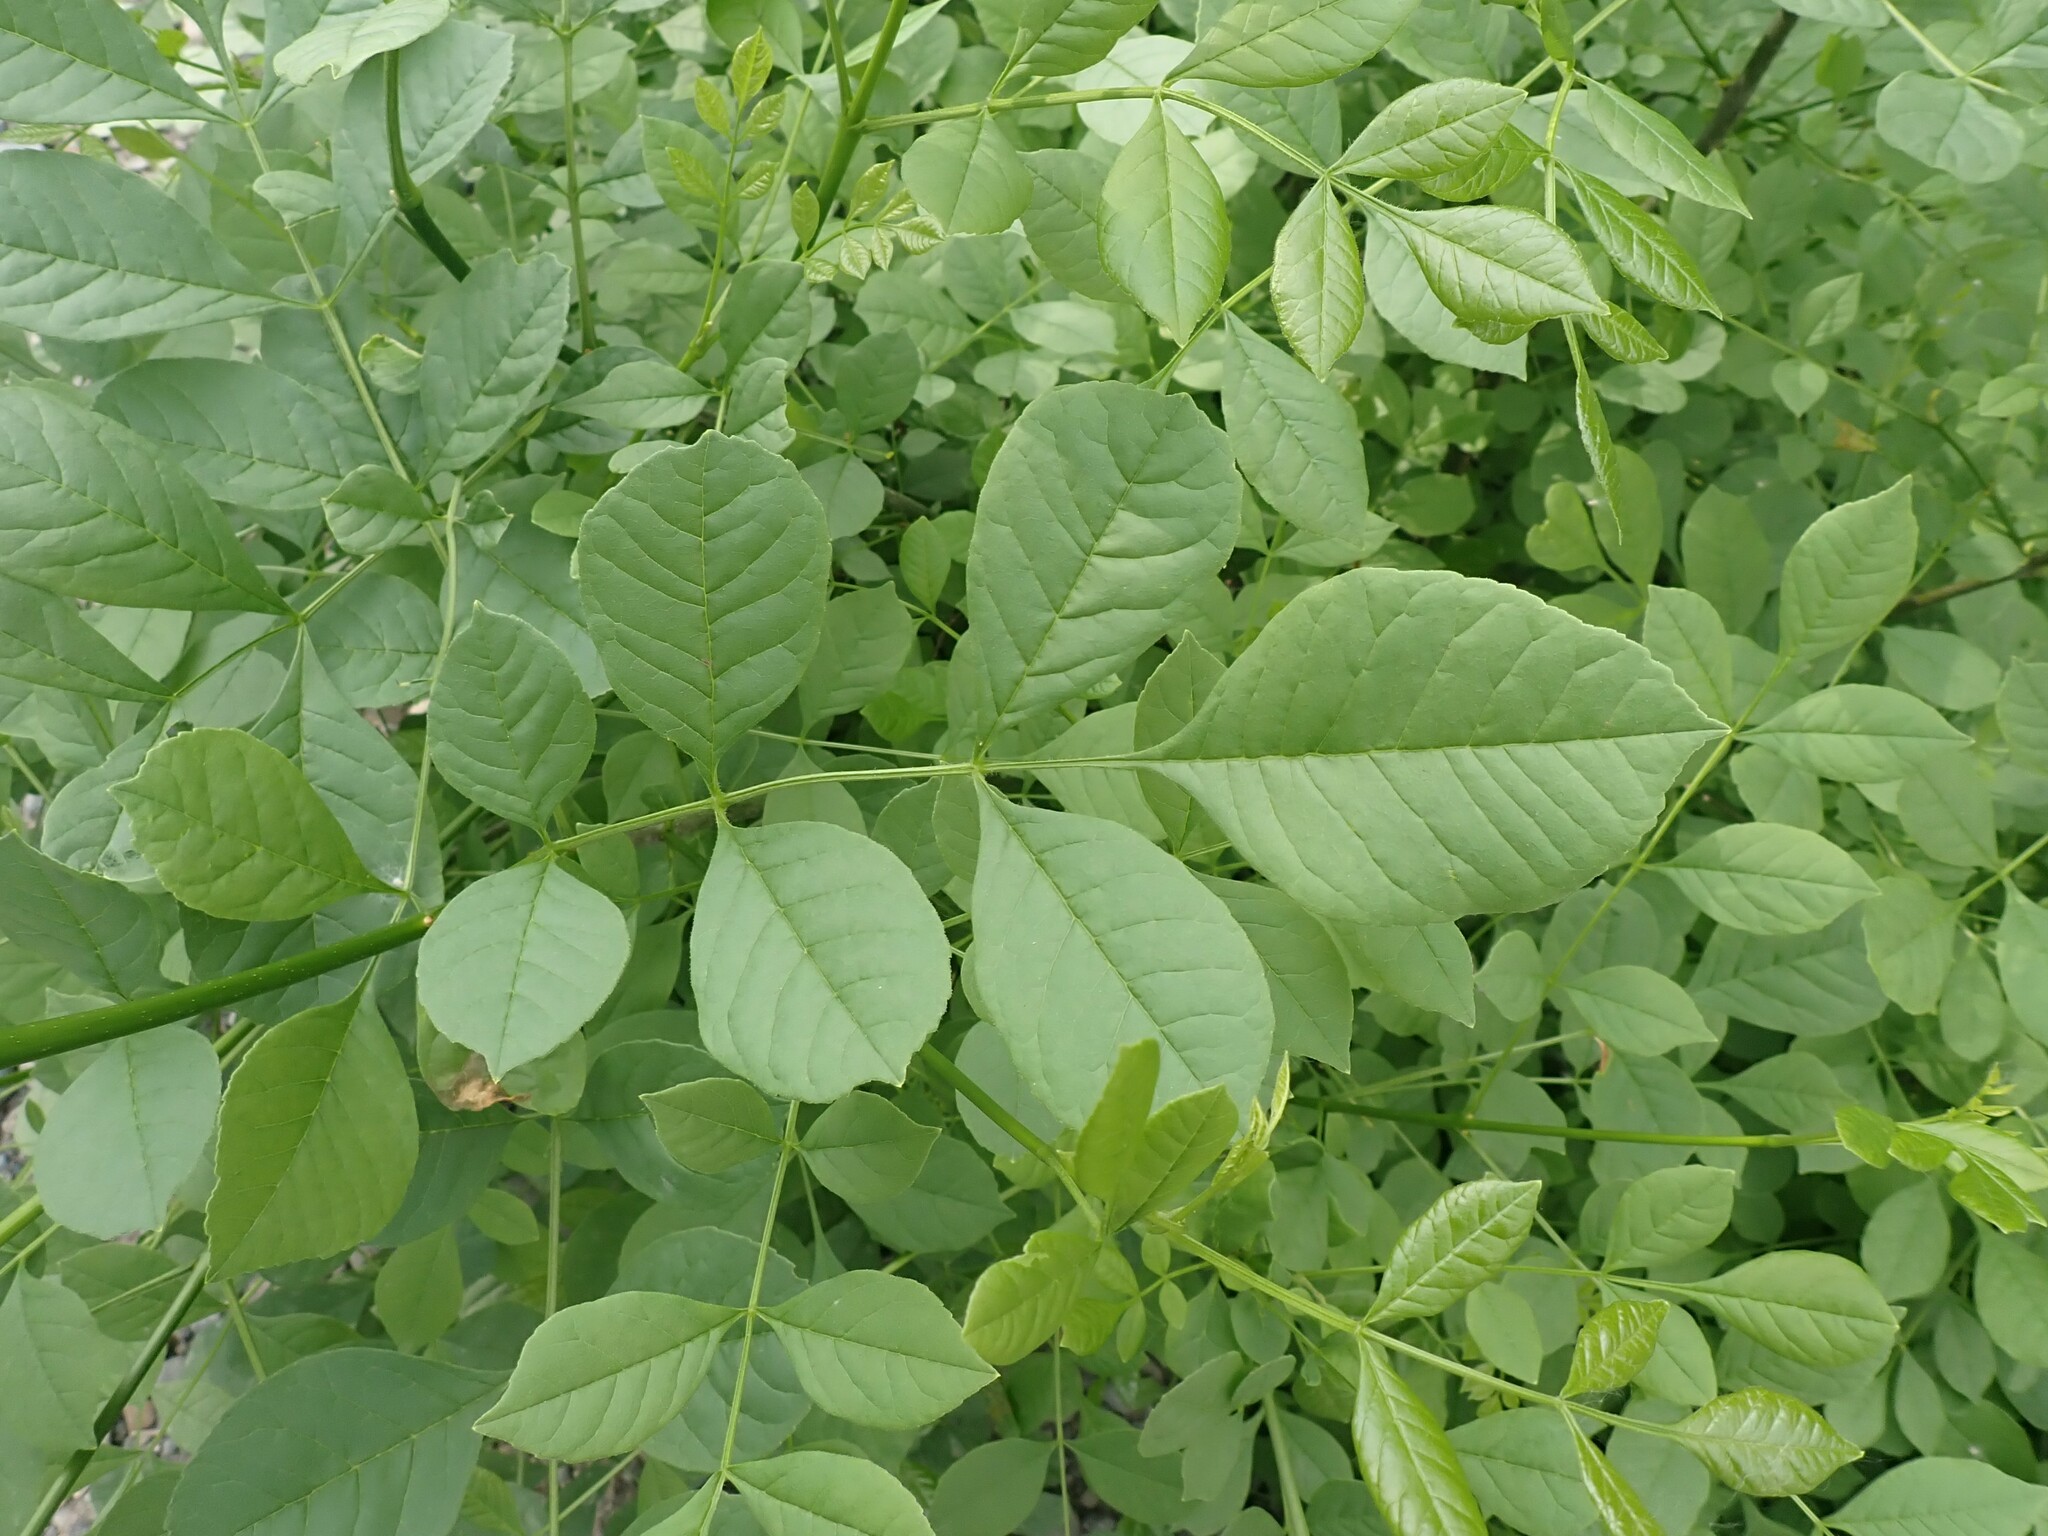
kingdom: Plantae
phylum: Tracheophyta
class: Magnoliopsida
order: Lamiales
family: Oleaceae
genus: Fraxinus
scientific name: Fraxinus latifolia
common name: Oregon ash
